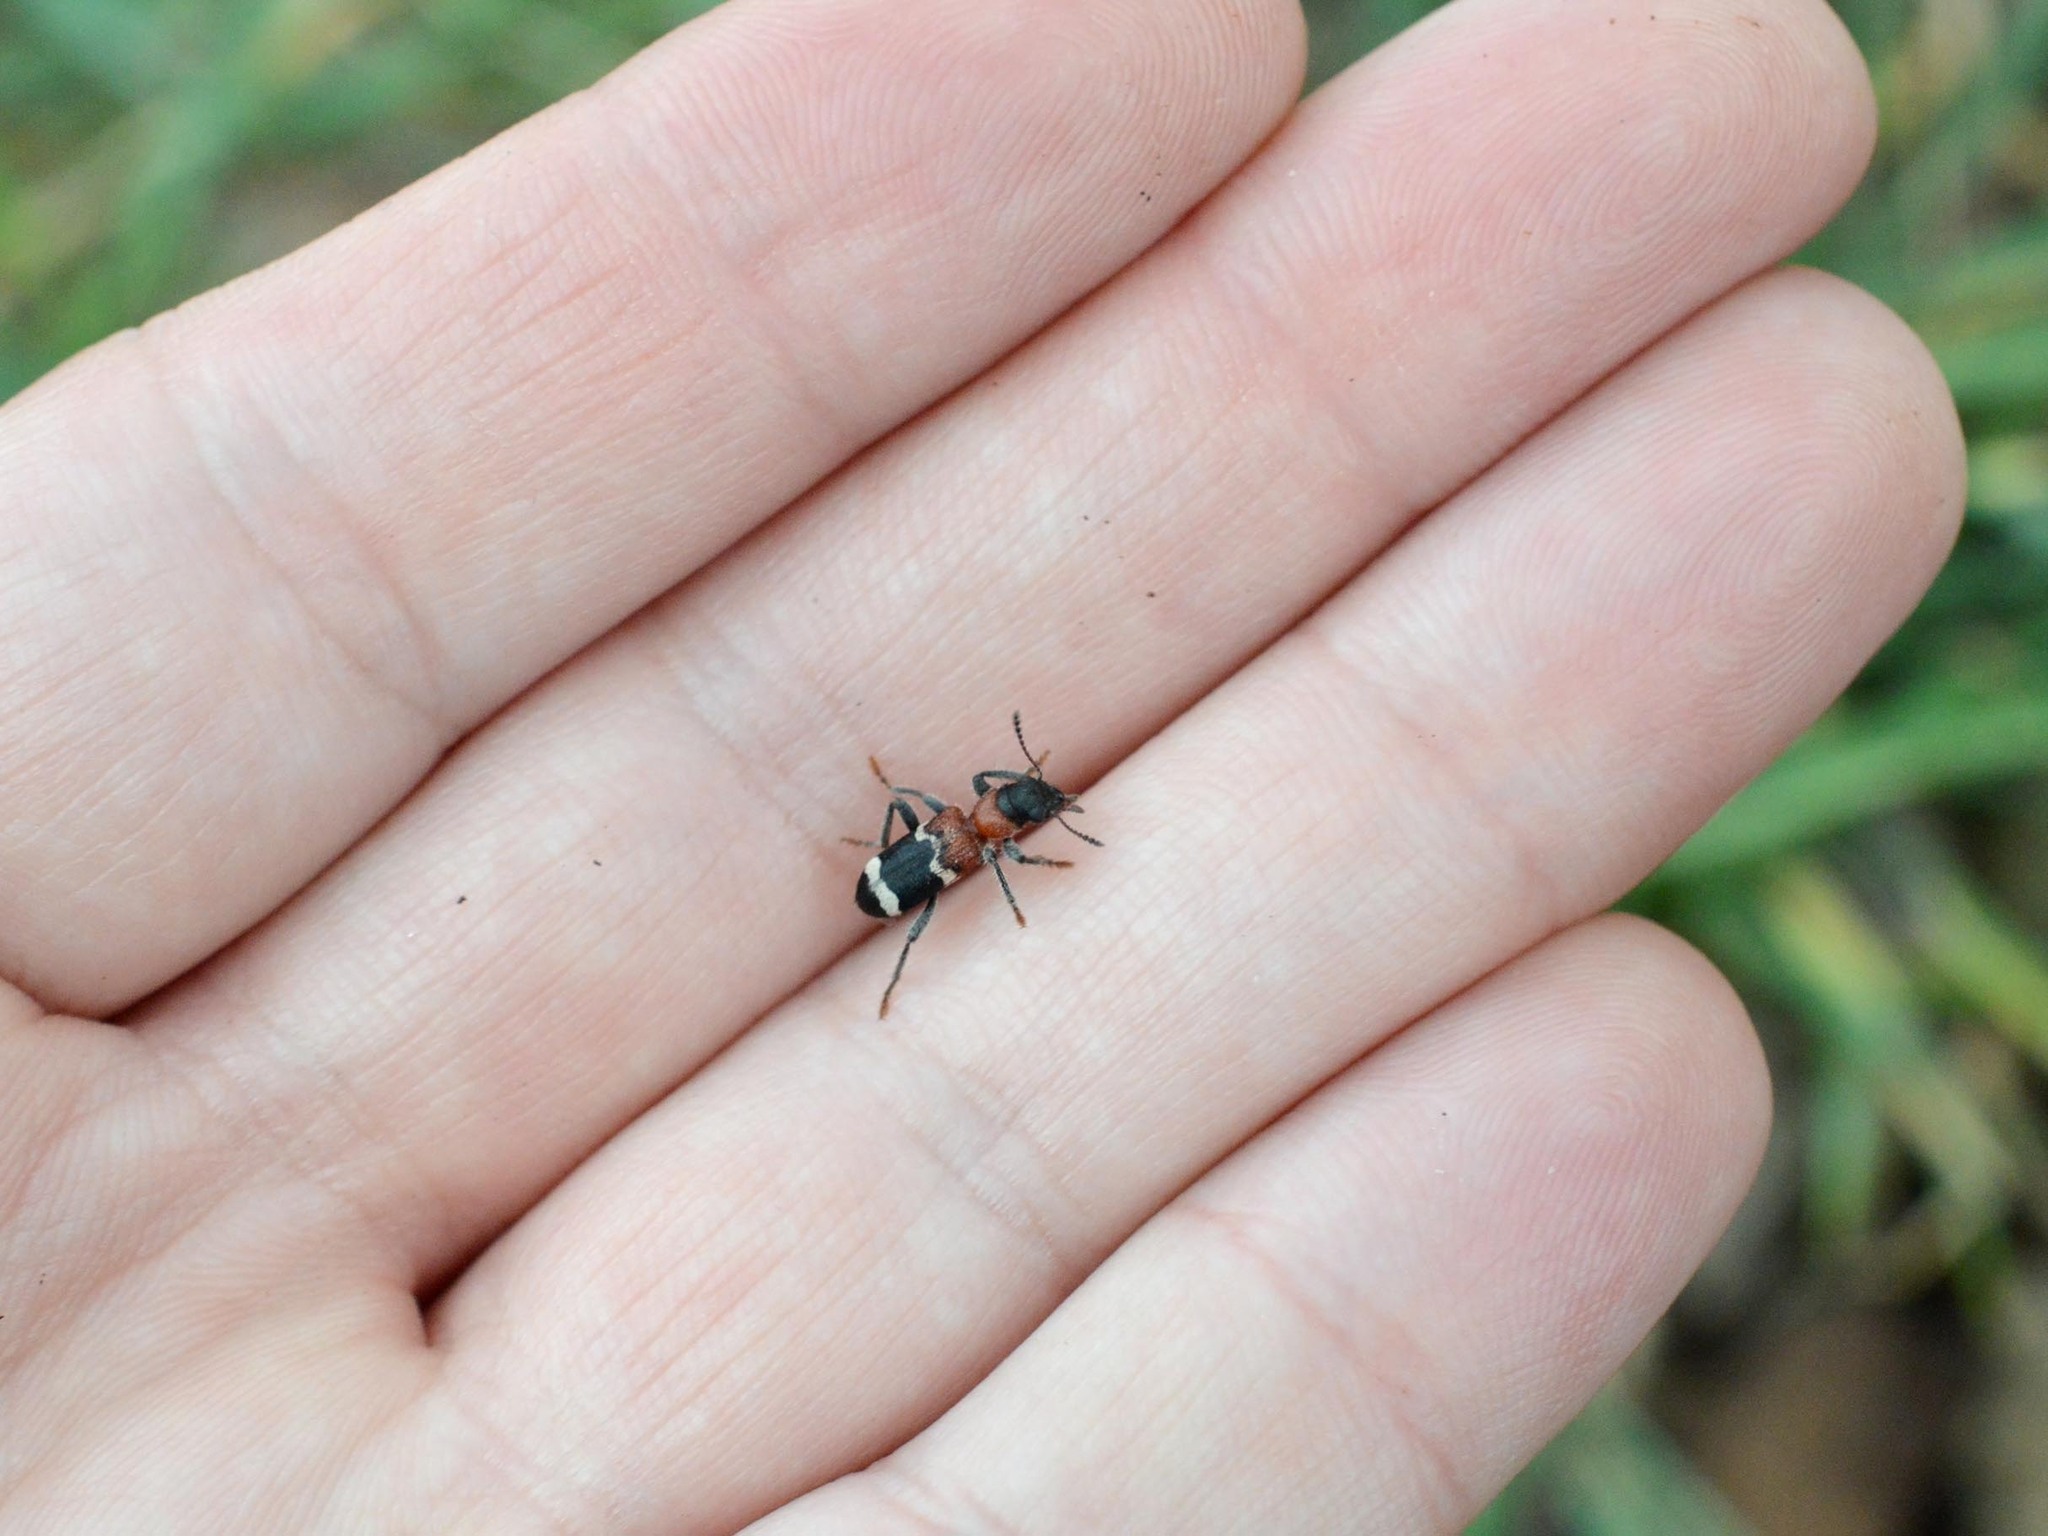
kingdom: Animalia
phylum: Arthropoda
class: Insecta
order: Coleoptera
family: Cleridae
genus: Thanasimus
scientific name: Thanasimus formicarius
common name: Ant beetle
